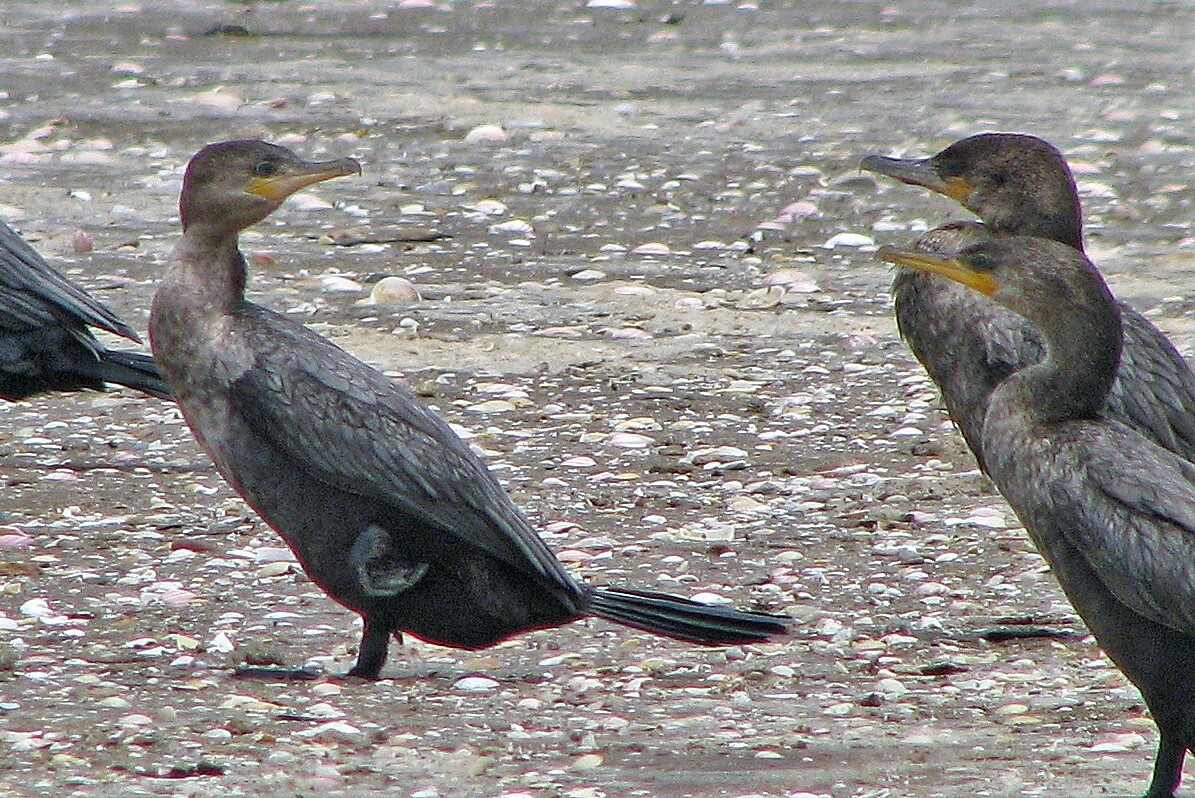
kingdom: Animalia
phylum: Chordata
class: Aves
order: Suliformes
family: Phalacrocoracidae
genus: Phalacrocorax
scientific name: Phalacrocorax brasilianus
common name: Neotropic cormorant
